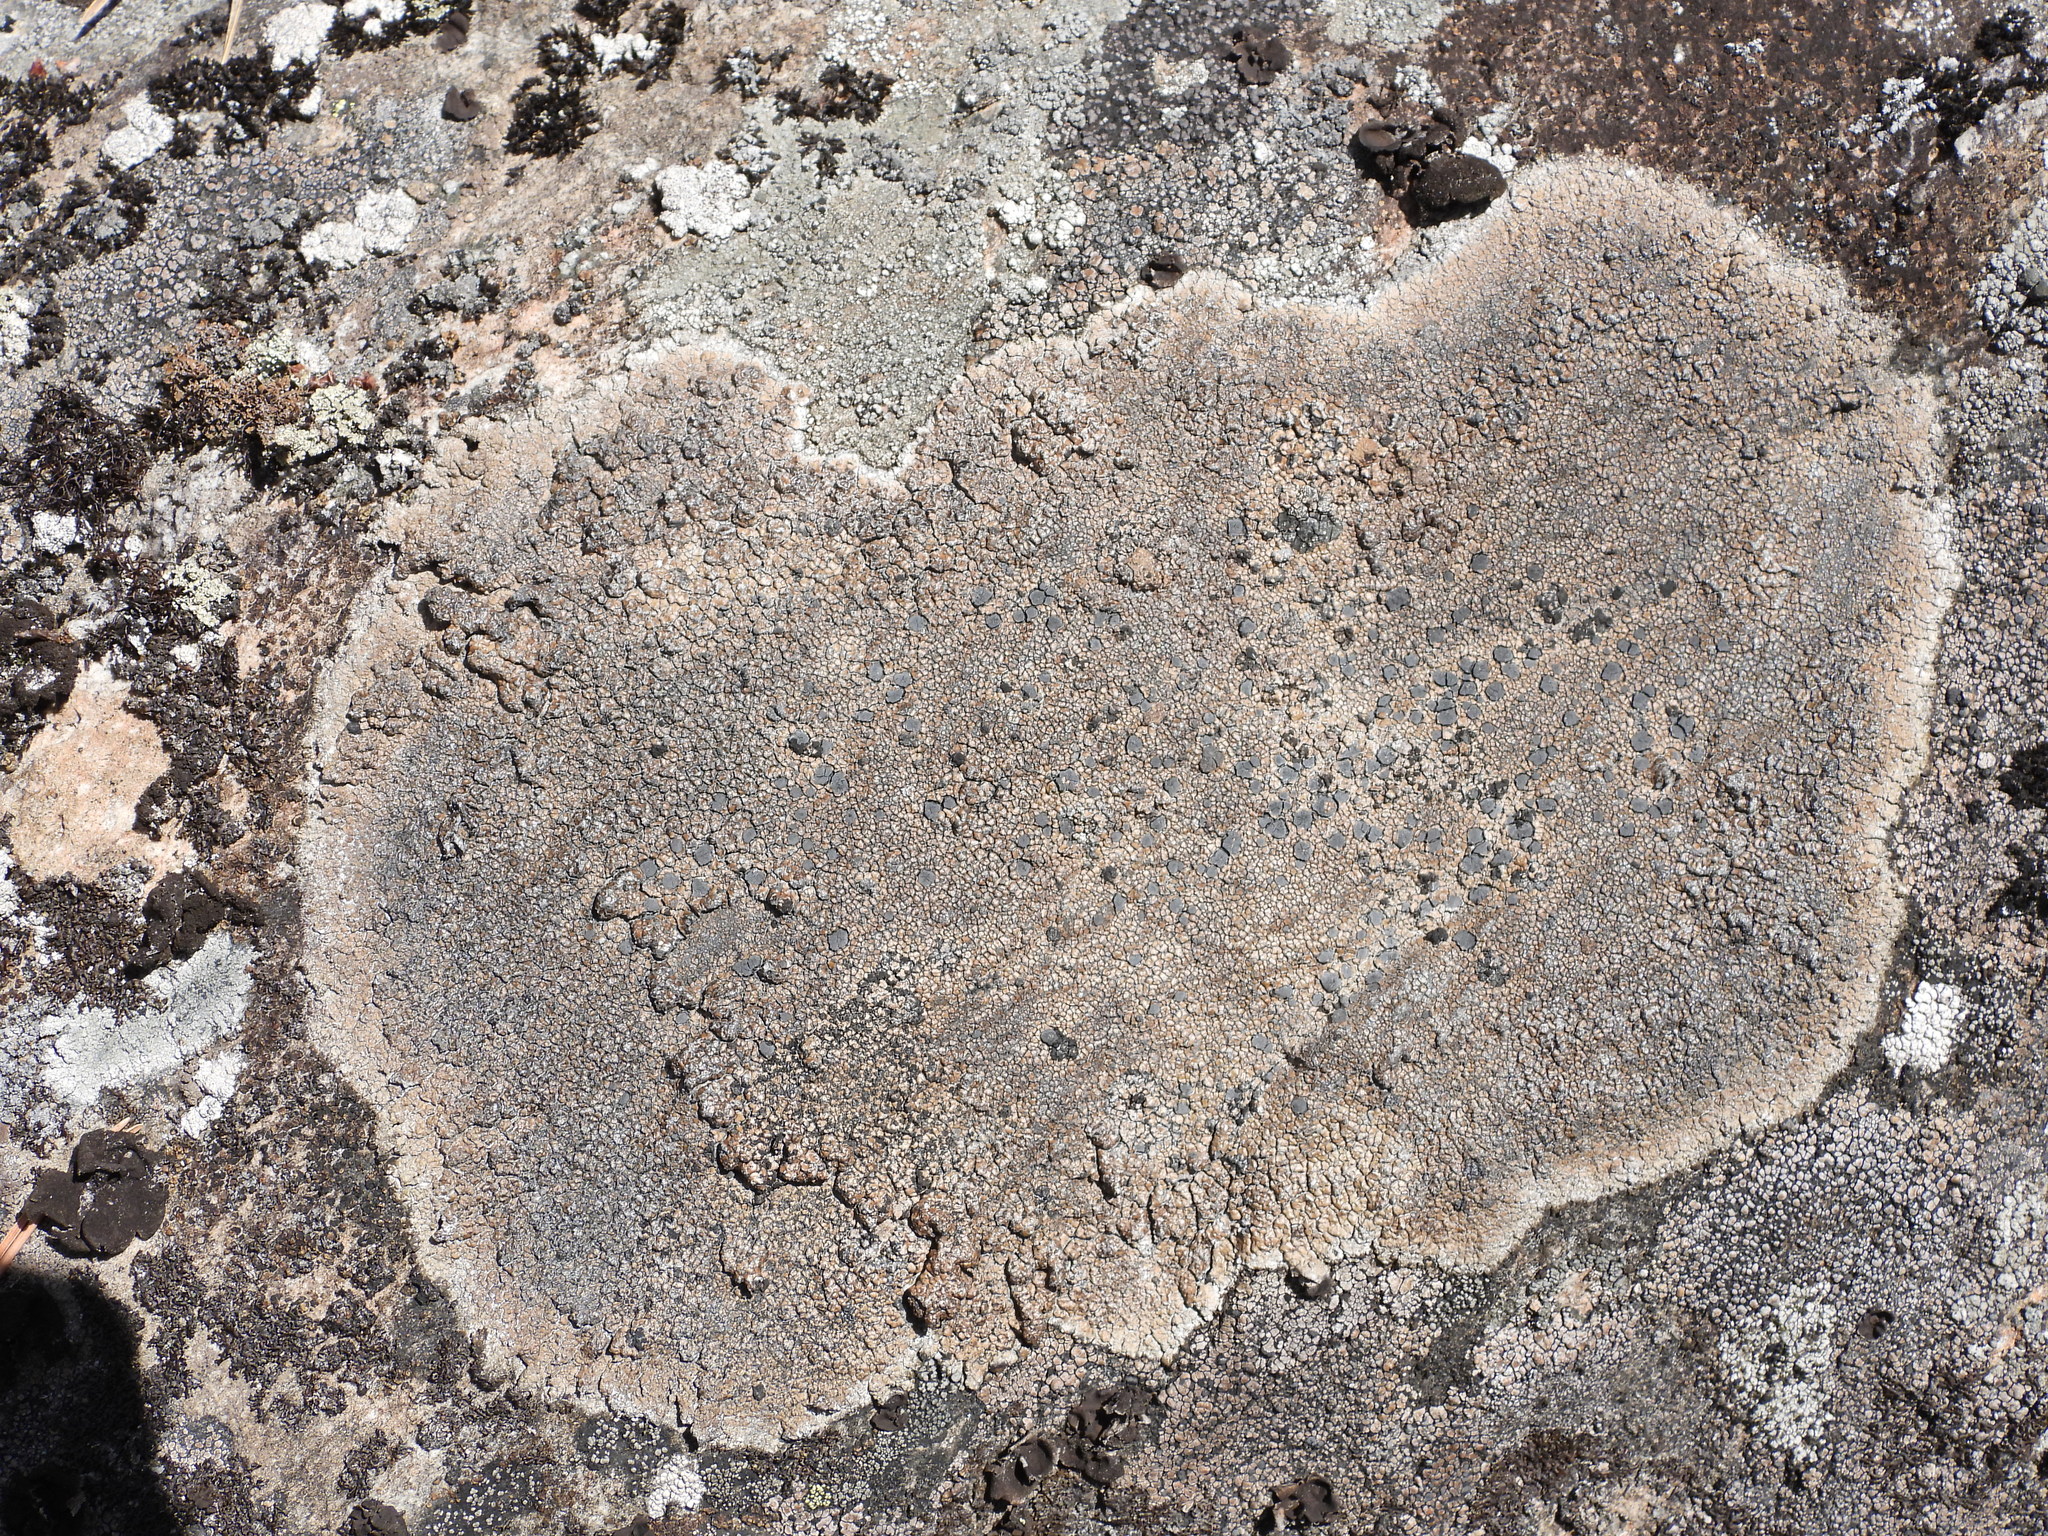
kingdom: Fungi
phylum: Ascomycota
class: Lecanoromycetes
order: Lecideales
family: Lecideaceae
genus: Lecidea
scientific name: Lecidea fuscoatra
